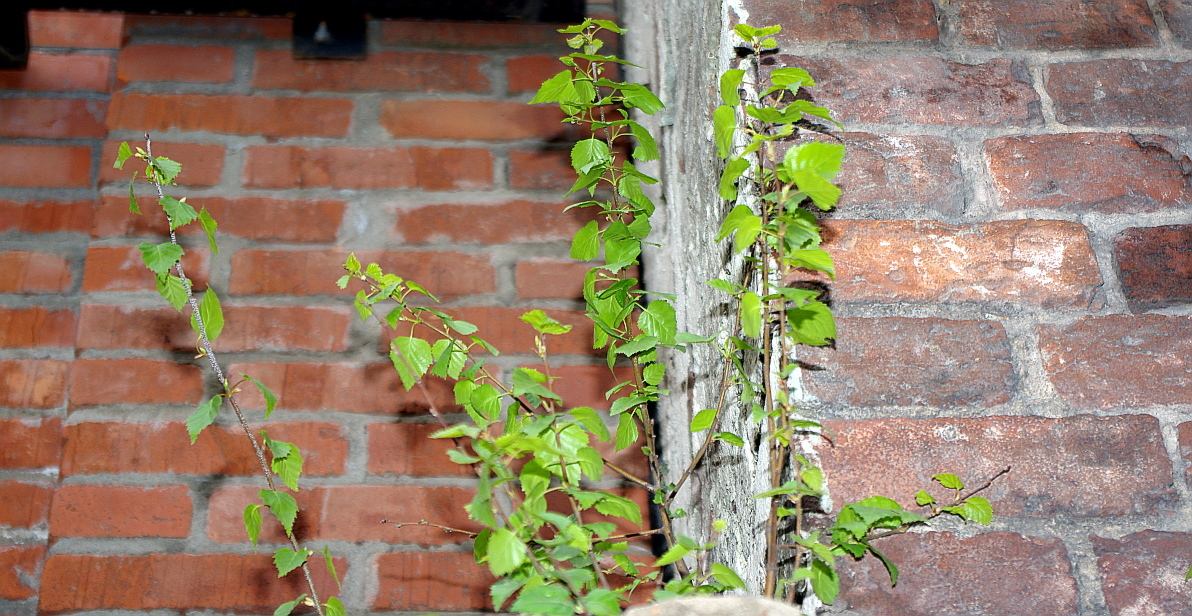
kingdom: Plantae
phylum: Tracheophyta
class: Magnoliopsida
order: Fagales
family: Betulaceae
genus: Betula
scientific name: Betula pendula
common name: Silver birch
